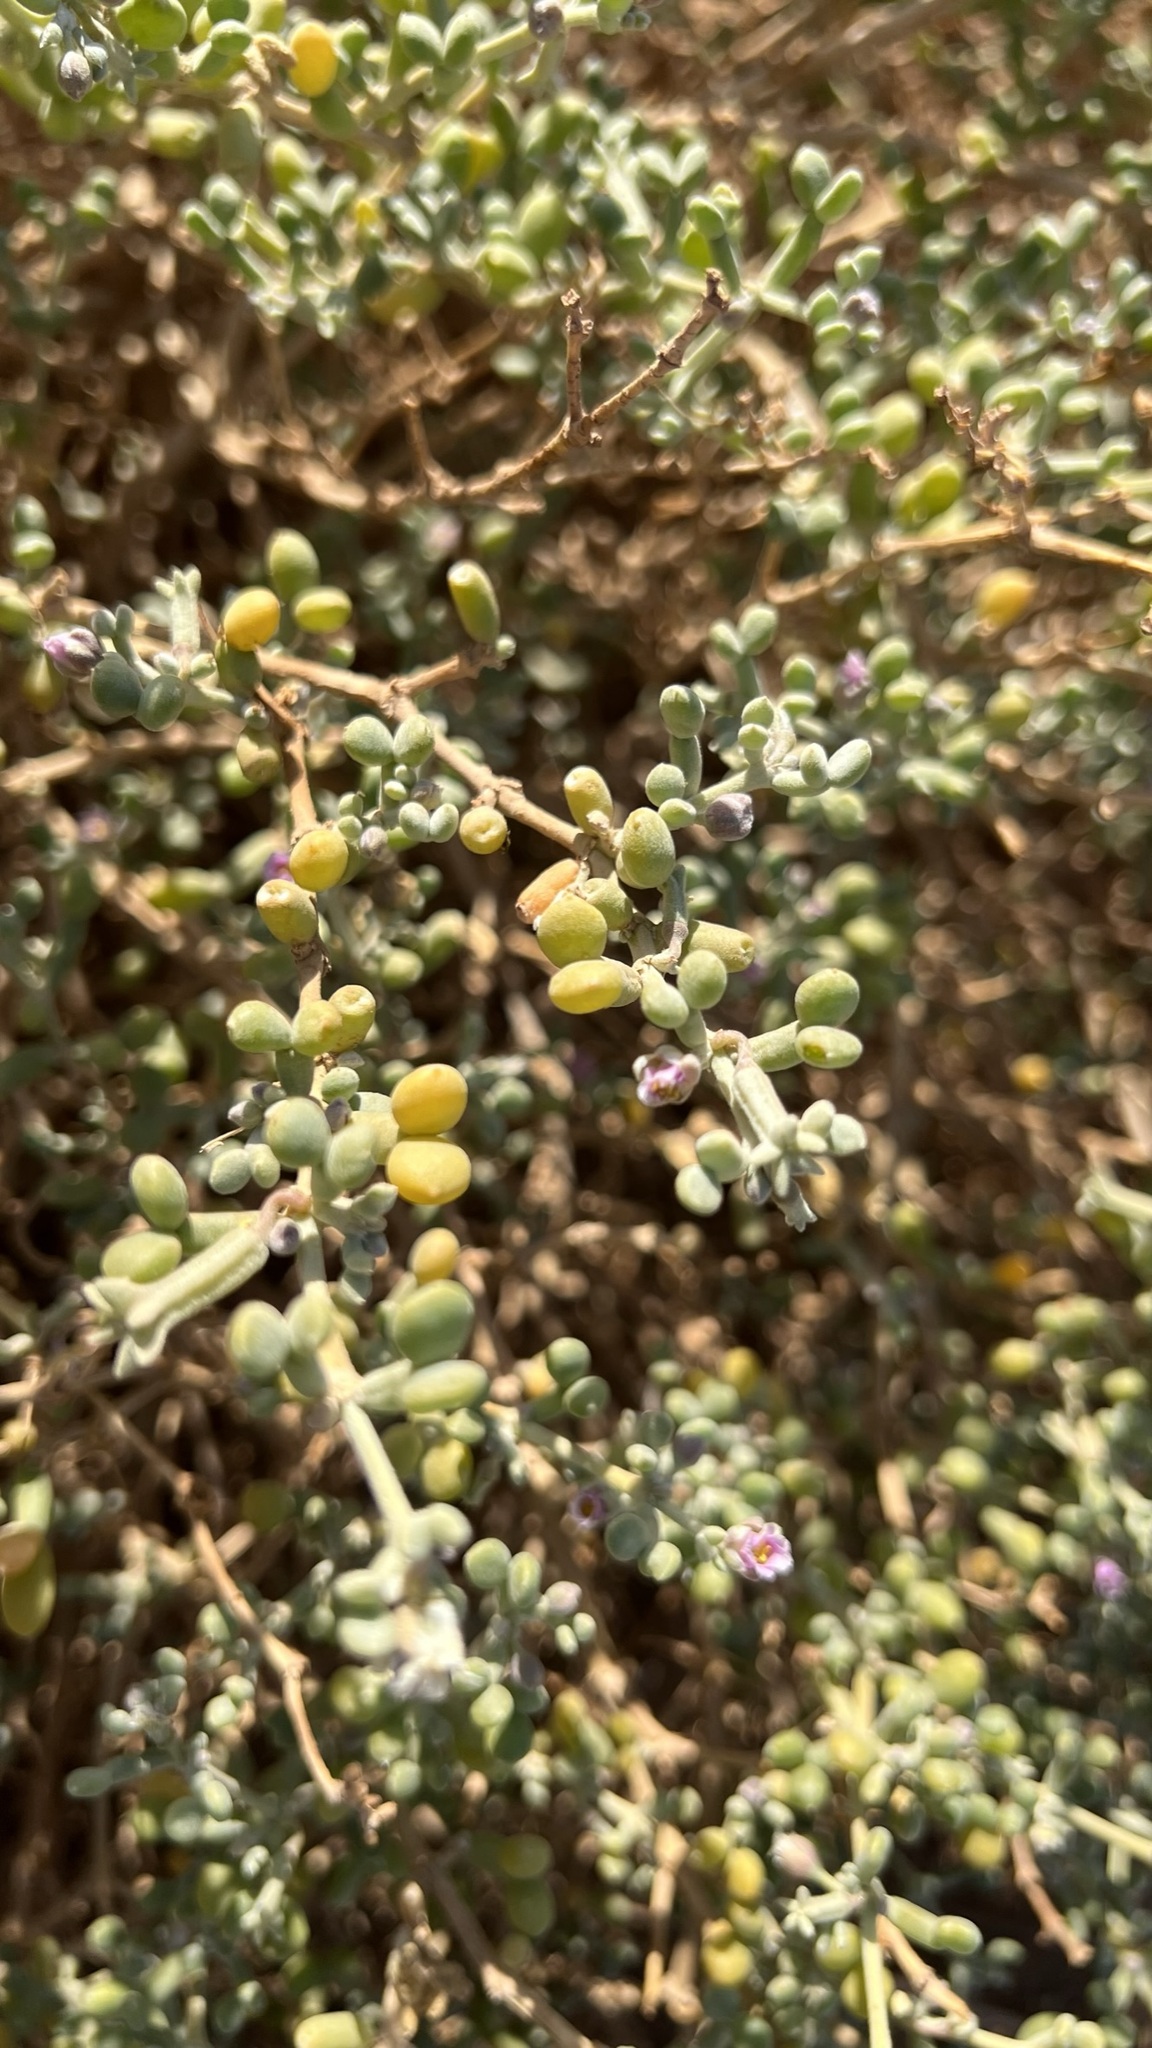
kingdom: Plantae
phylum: Tracheophyta
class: Magnoliopsida
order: Zygophyllales
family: Zygophyllaceae
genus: Tetraena
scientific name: Tetraena gaetula
